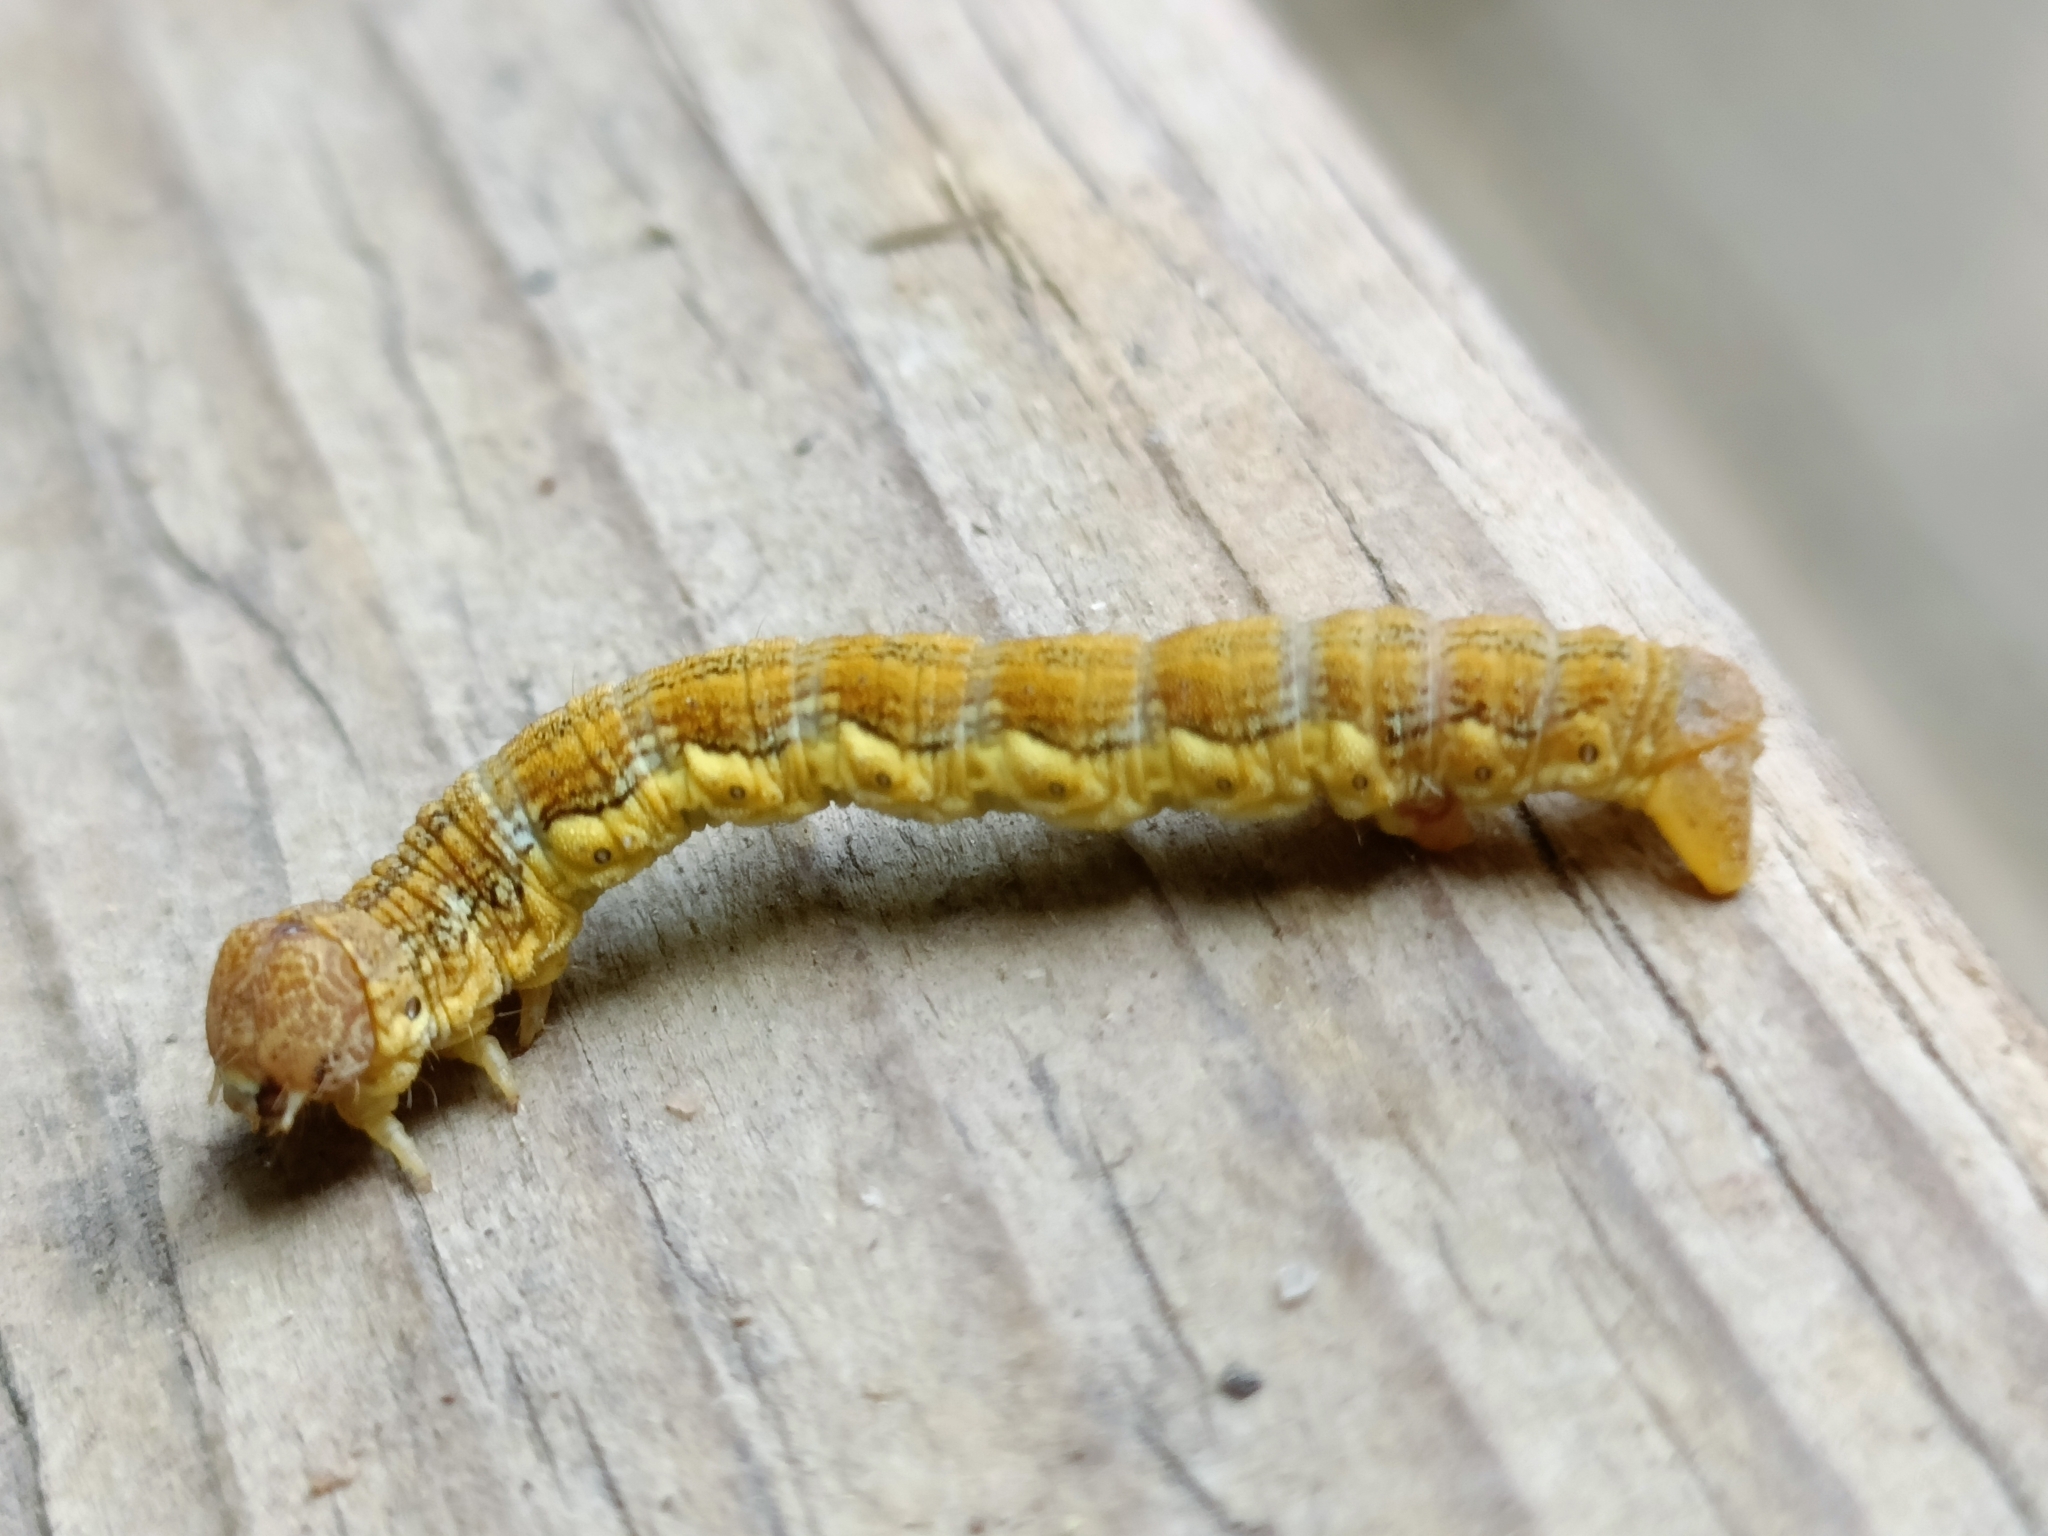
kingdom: Animalia
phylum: Arthropoda
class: Insecta
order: Lepidoptera
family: Geometridae
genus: Erannis
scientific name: Erannis defoliaria
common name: Mottled umber
